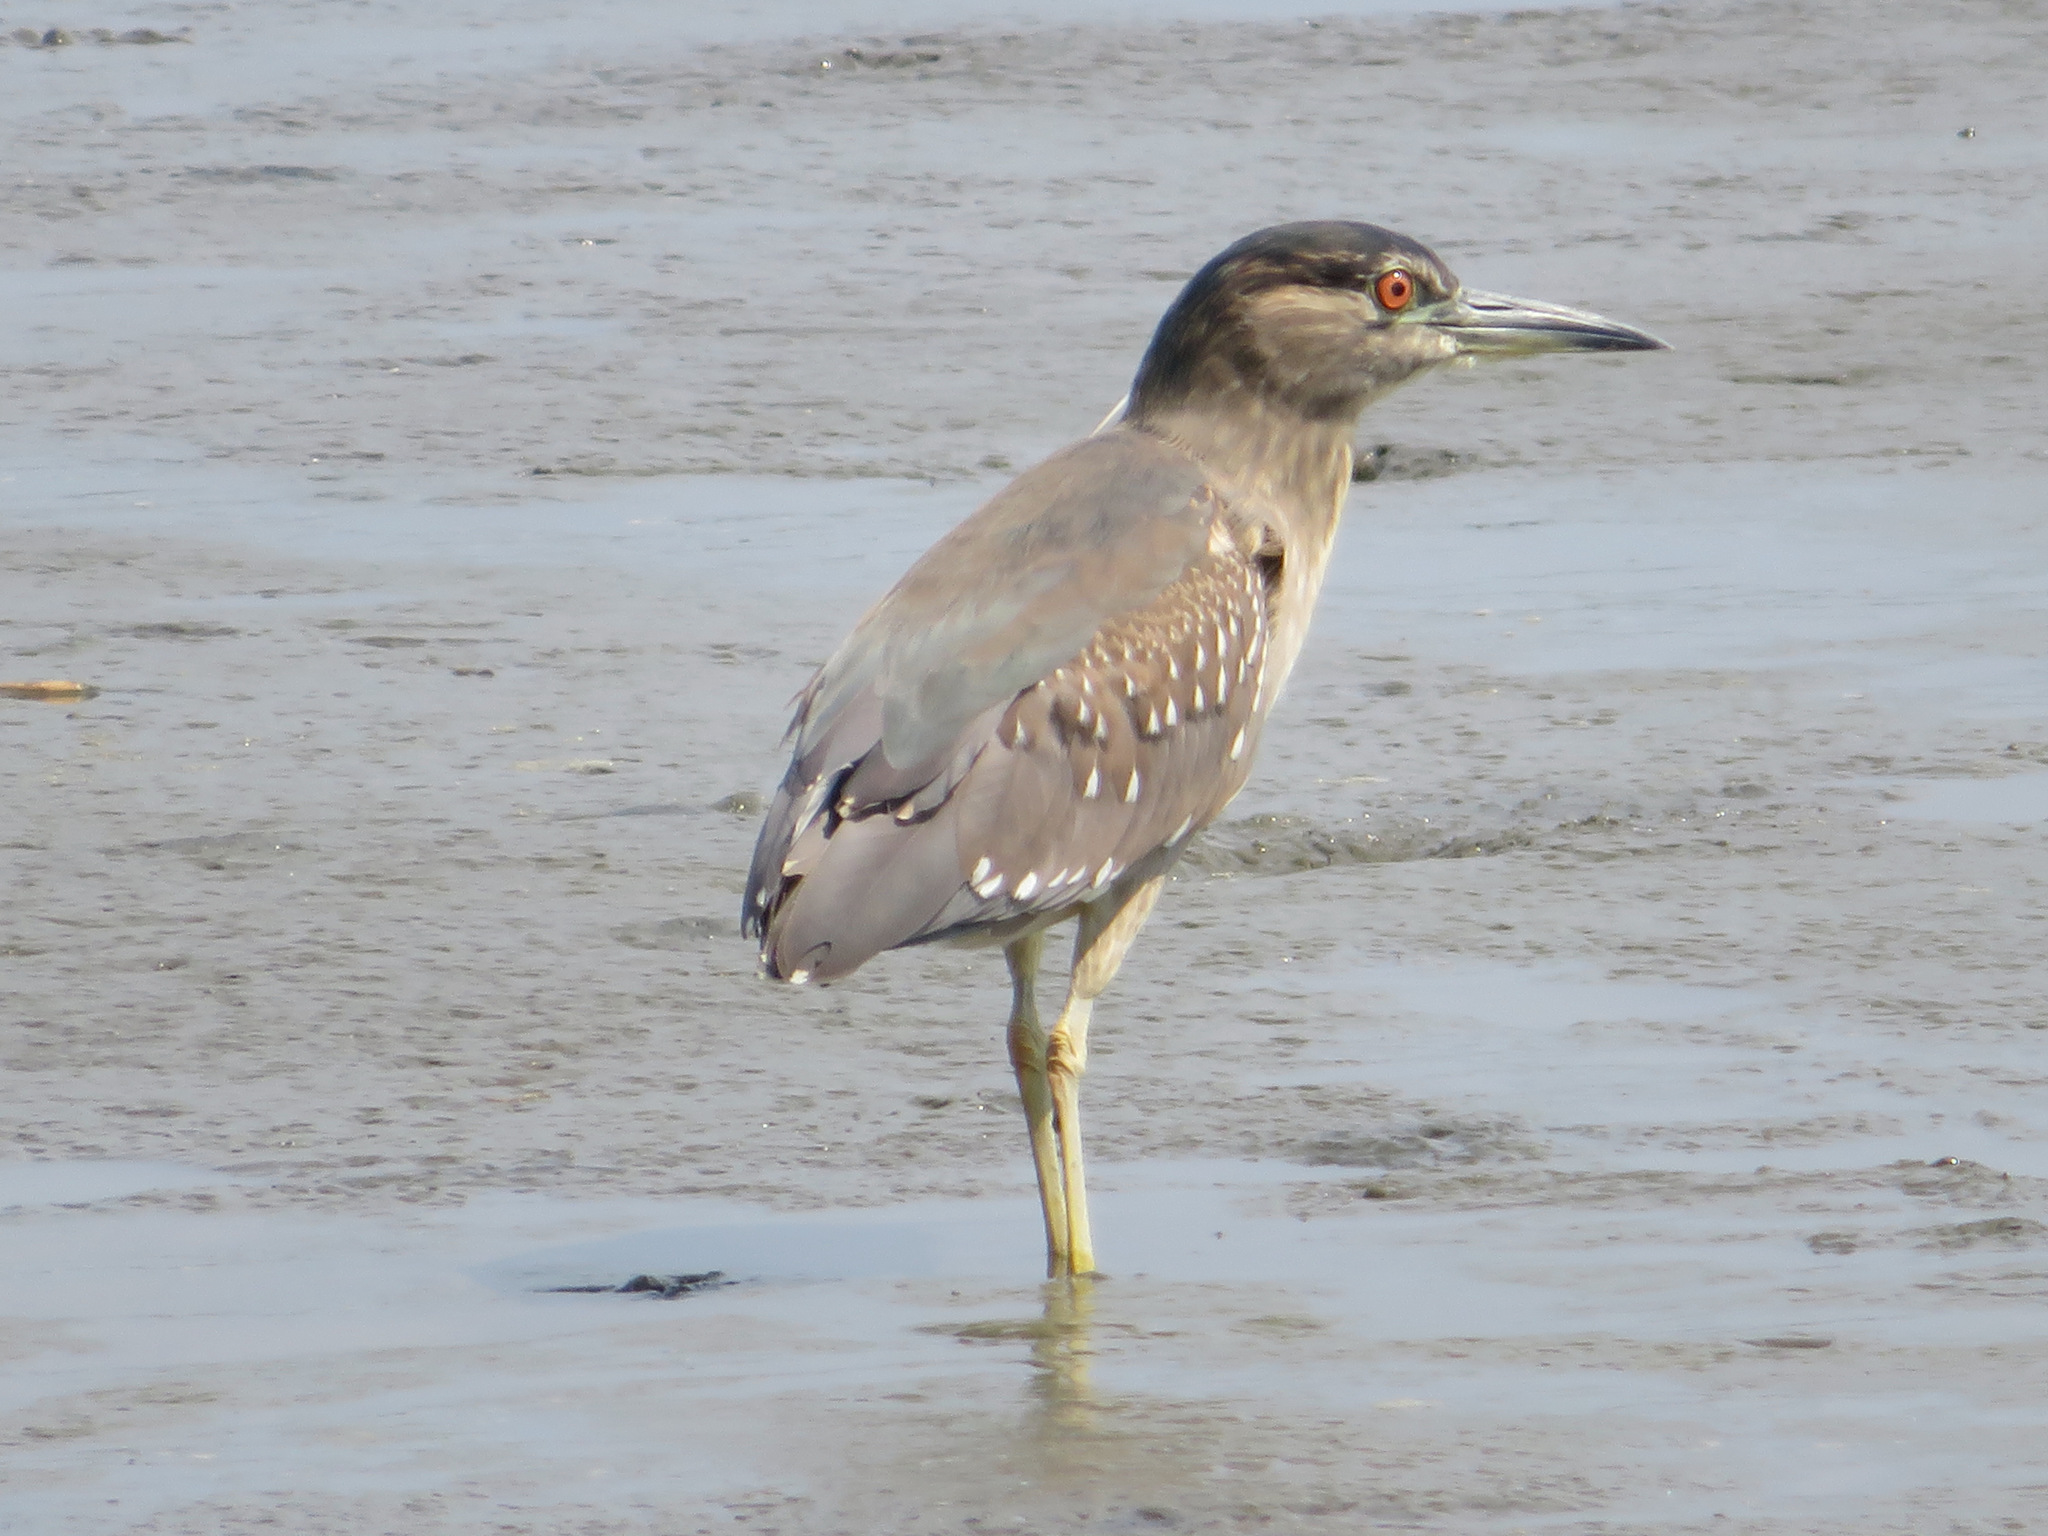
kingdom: Animalia
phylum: Chordata
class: Aves
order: Pelecaniformes
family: Ardeidae
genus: Nycticorax
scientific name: Nycticorax nycticorax
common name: Black-crowned night heron
